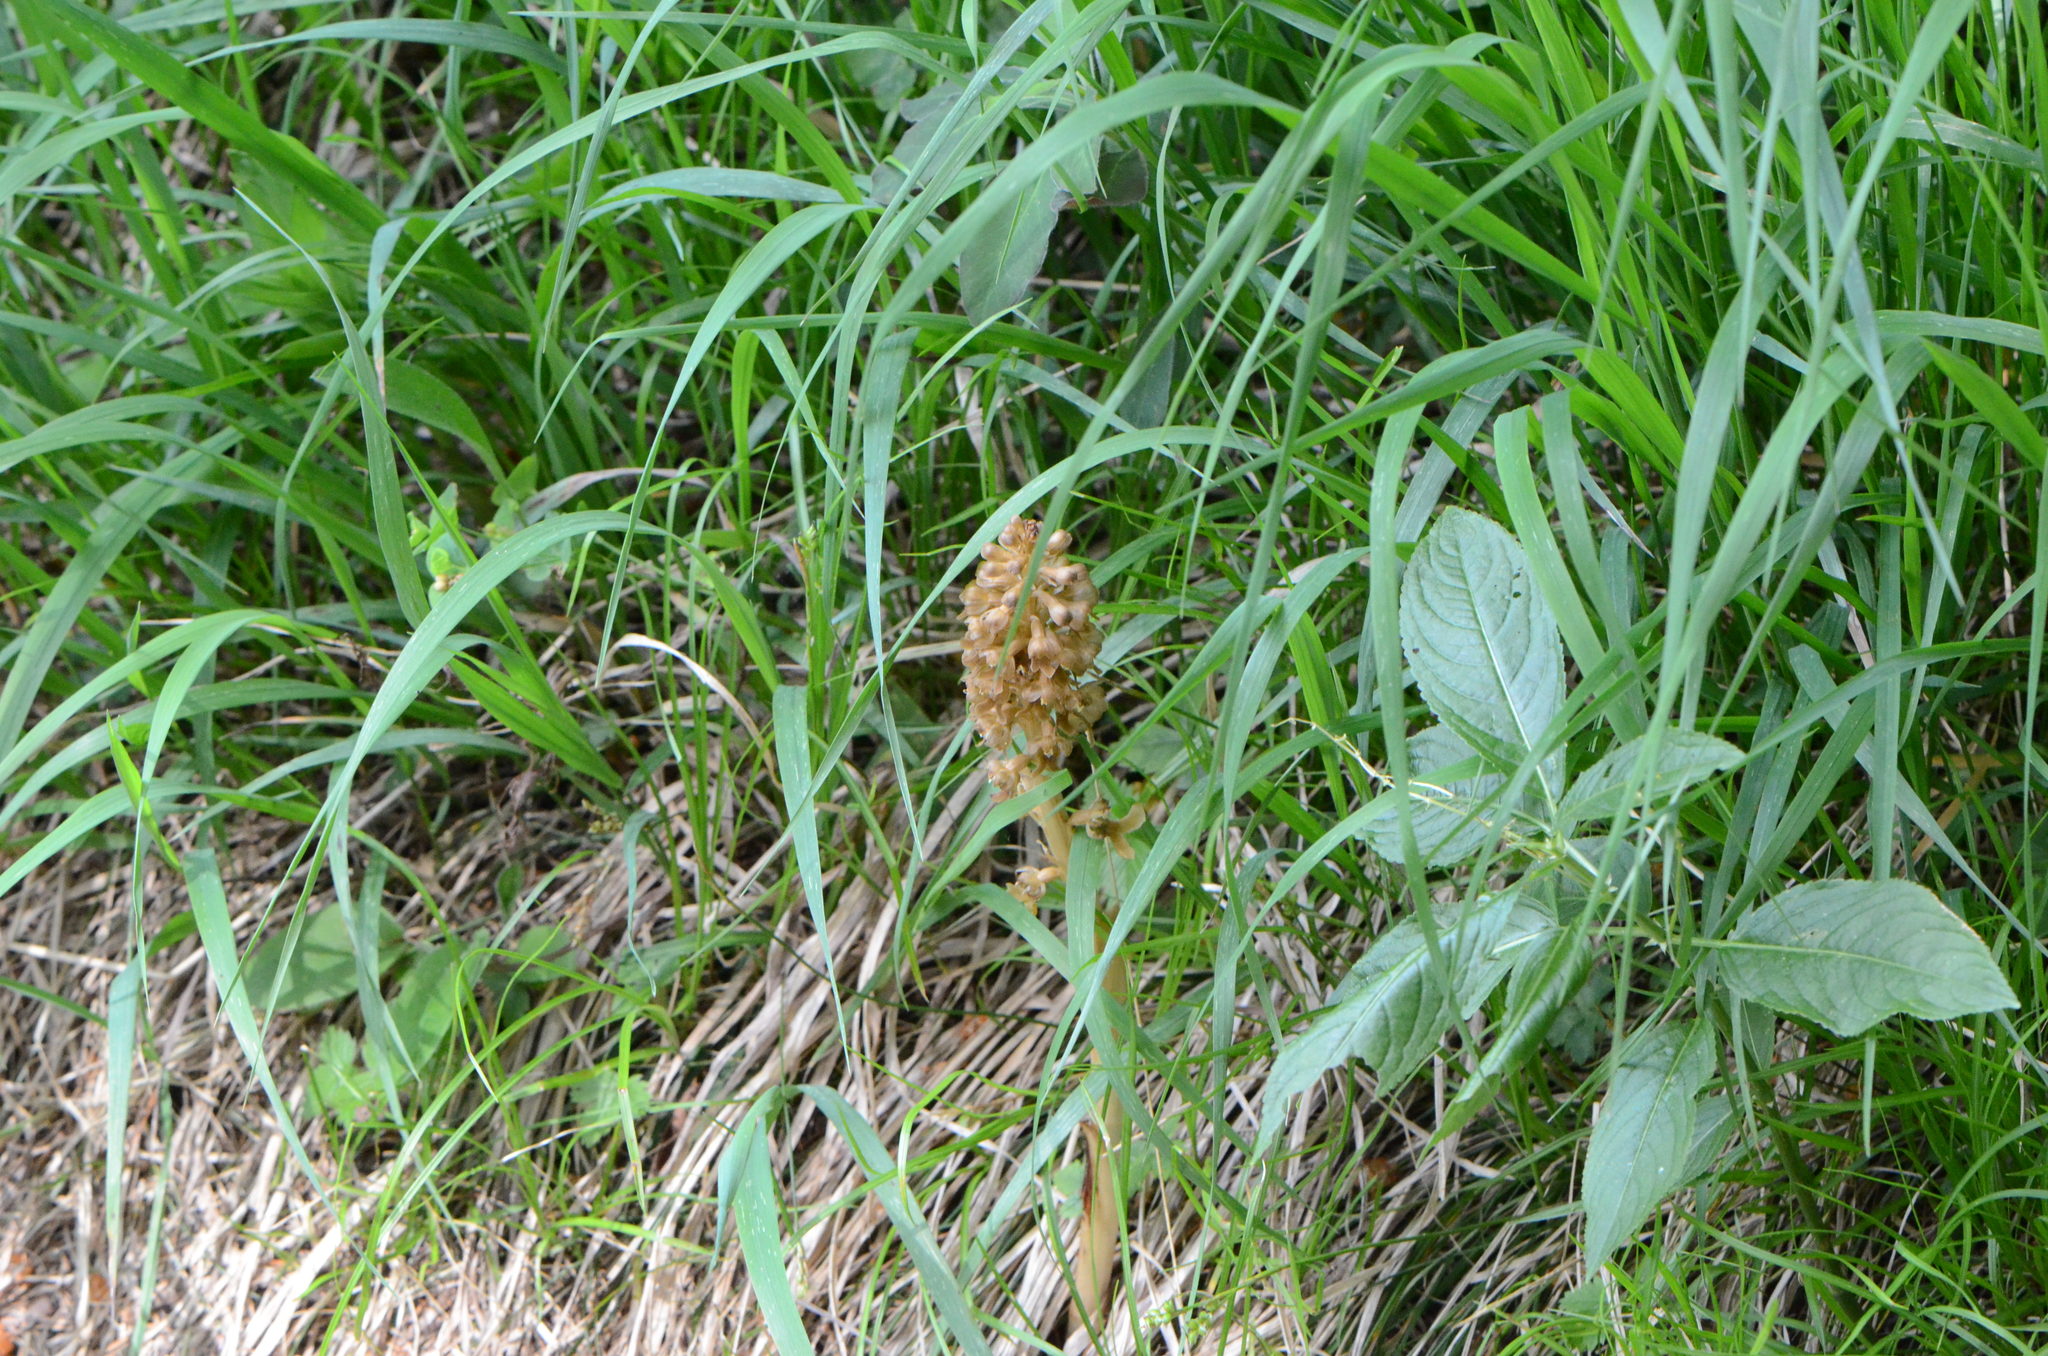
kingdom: Plantae
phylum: Tracheophyta
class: Liliopsida
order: Asparagales
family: Orchidaceae
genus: Neottia
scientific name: Neottia nidus-avis
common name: Bird's-nest orchid
